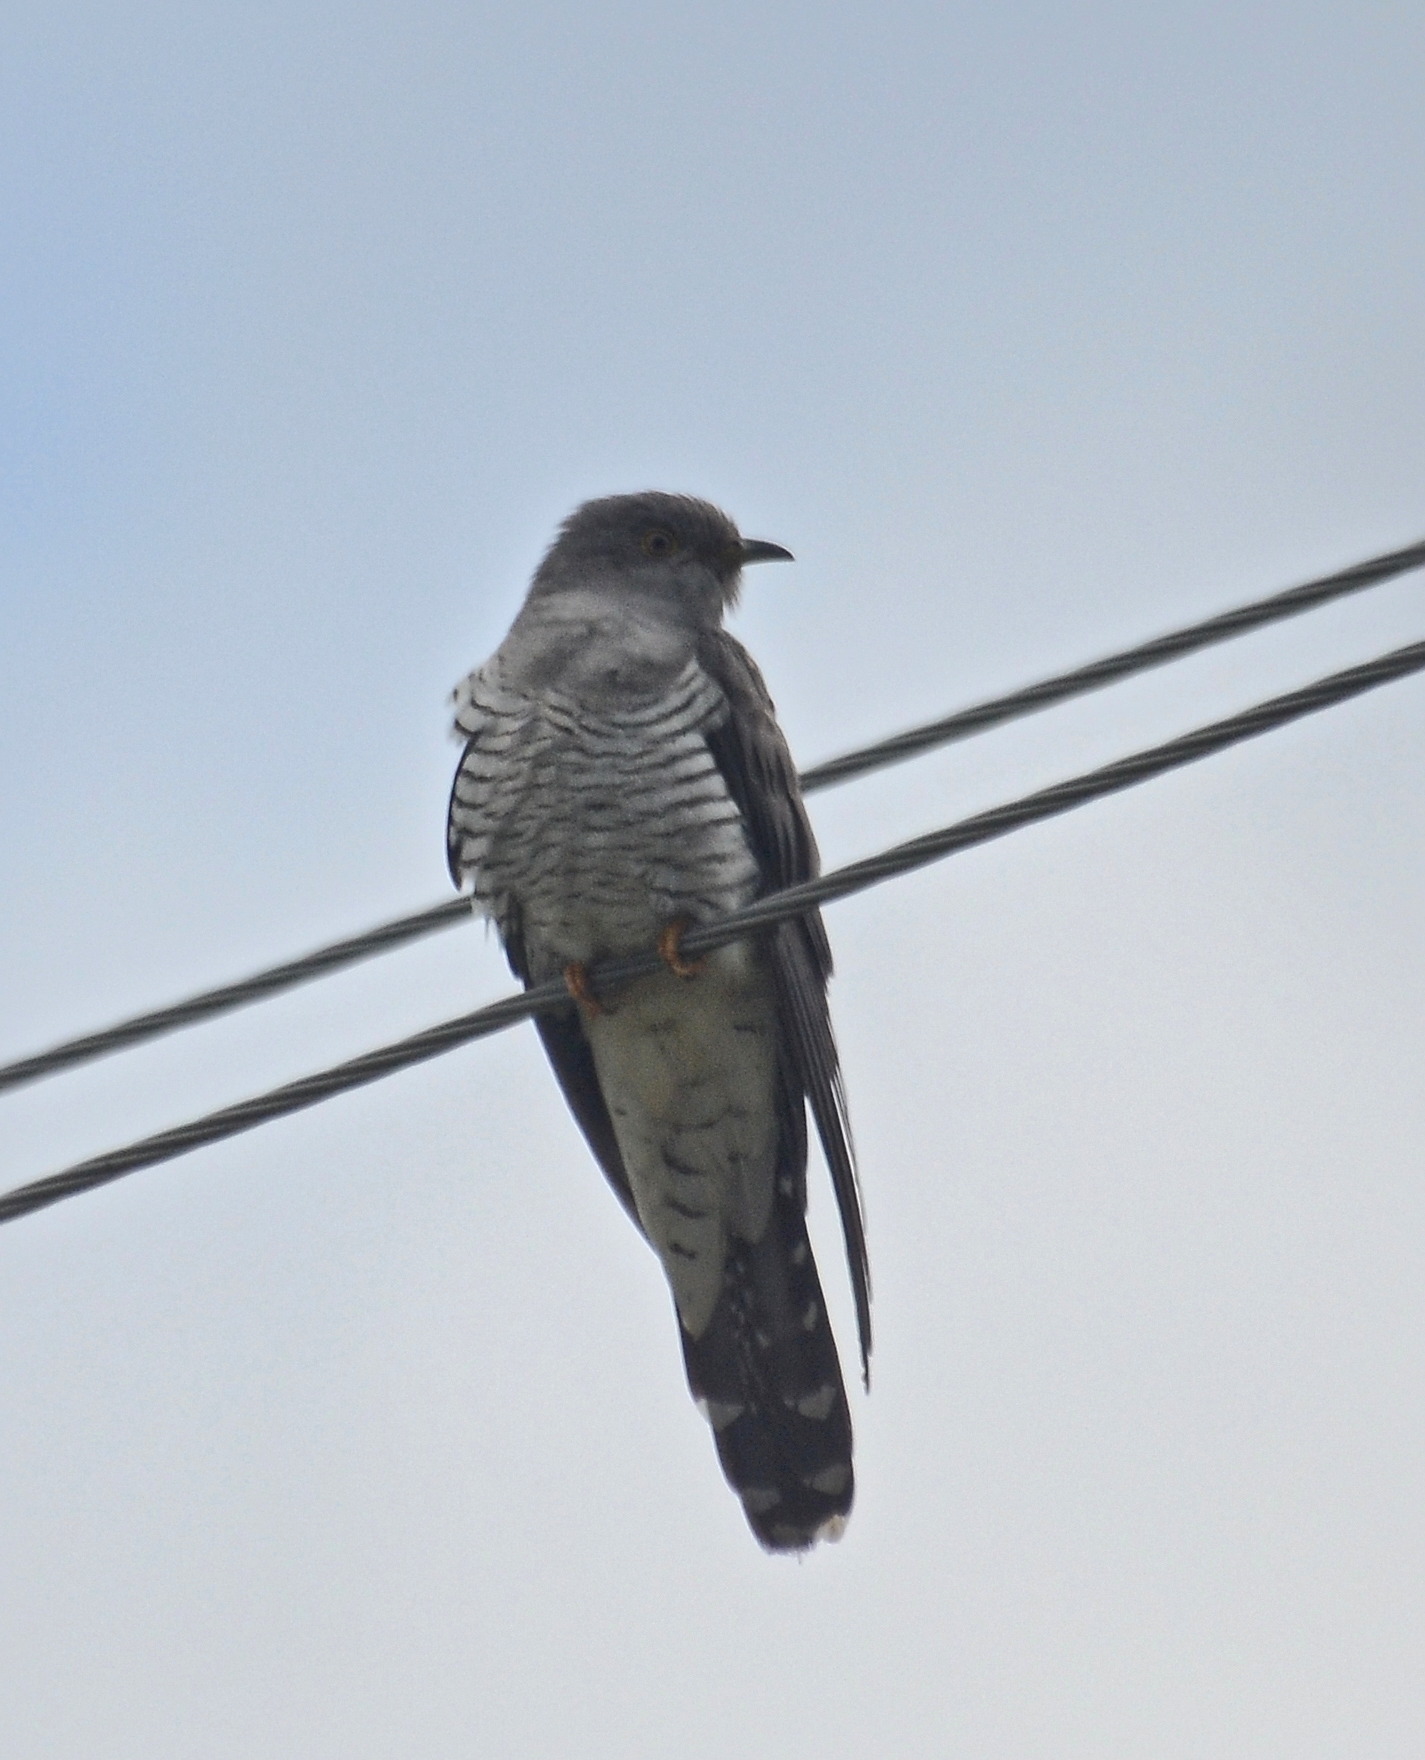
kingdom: Animalia
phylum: Chordata
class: Aves
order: Cuculiformes
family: Cuculidae
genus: Cuculus
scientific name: Cuculus canorus
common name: Common cuckoo
